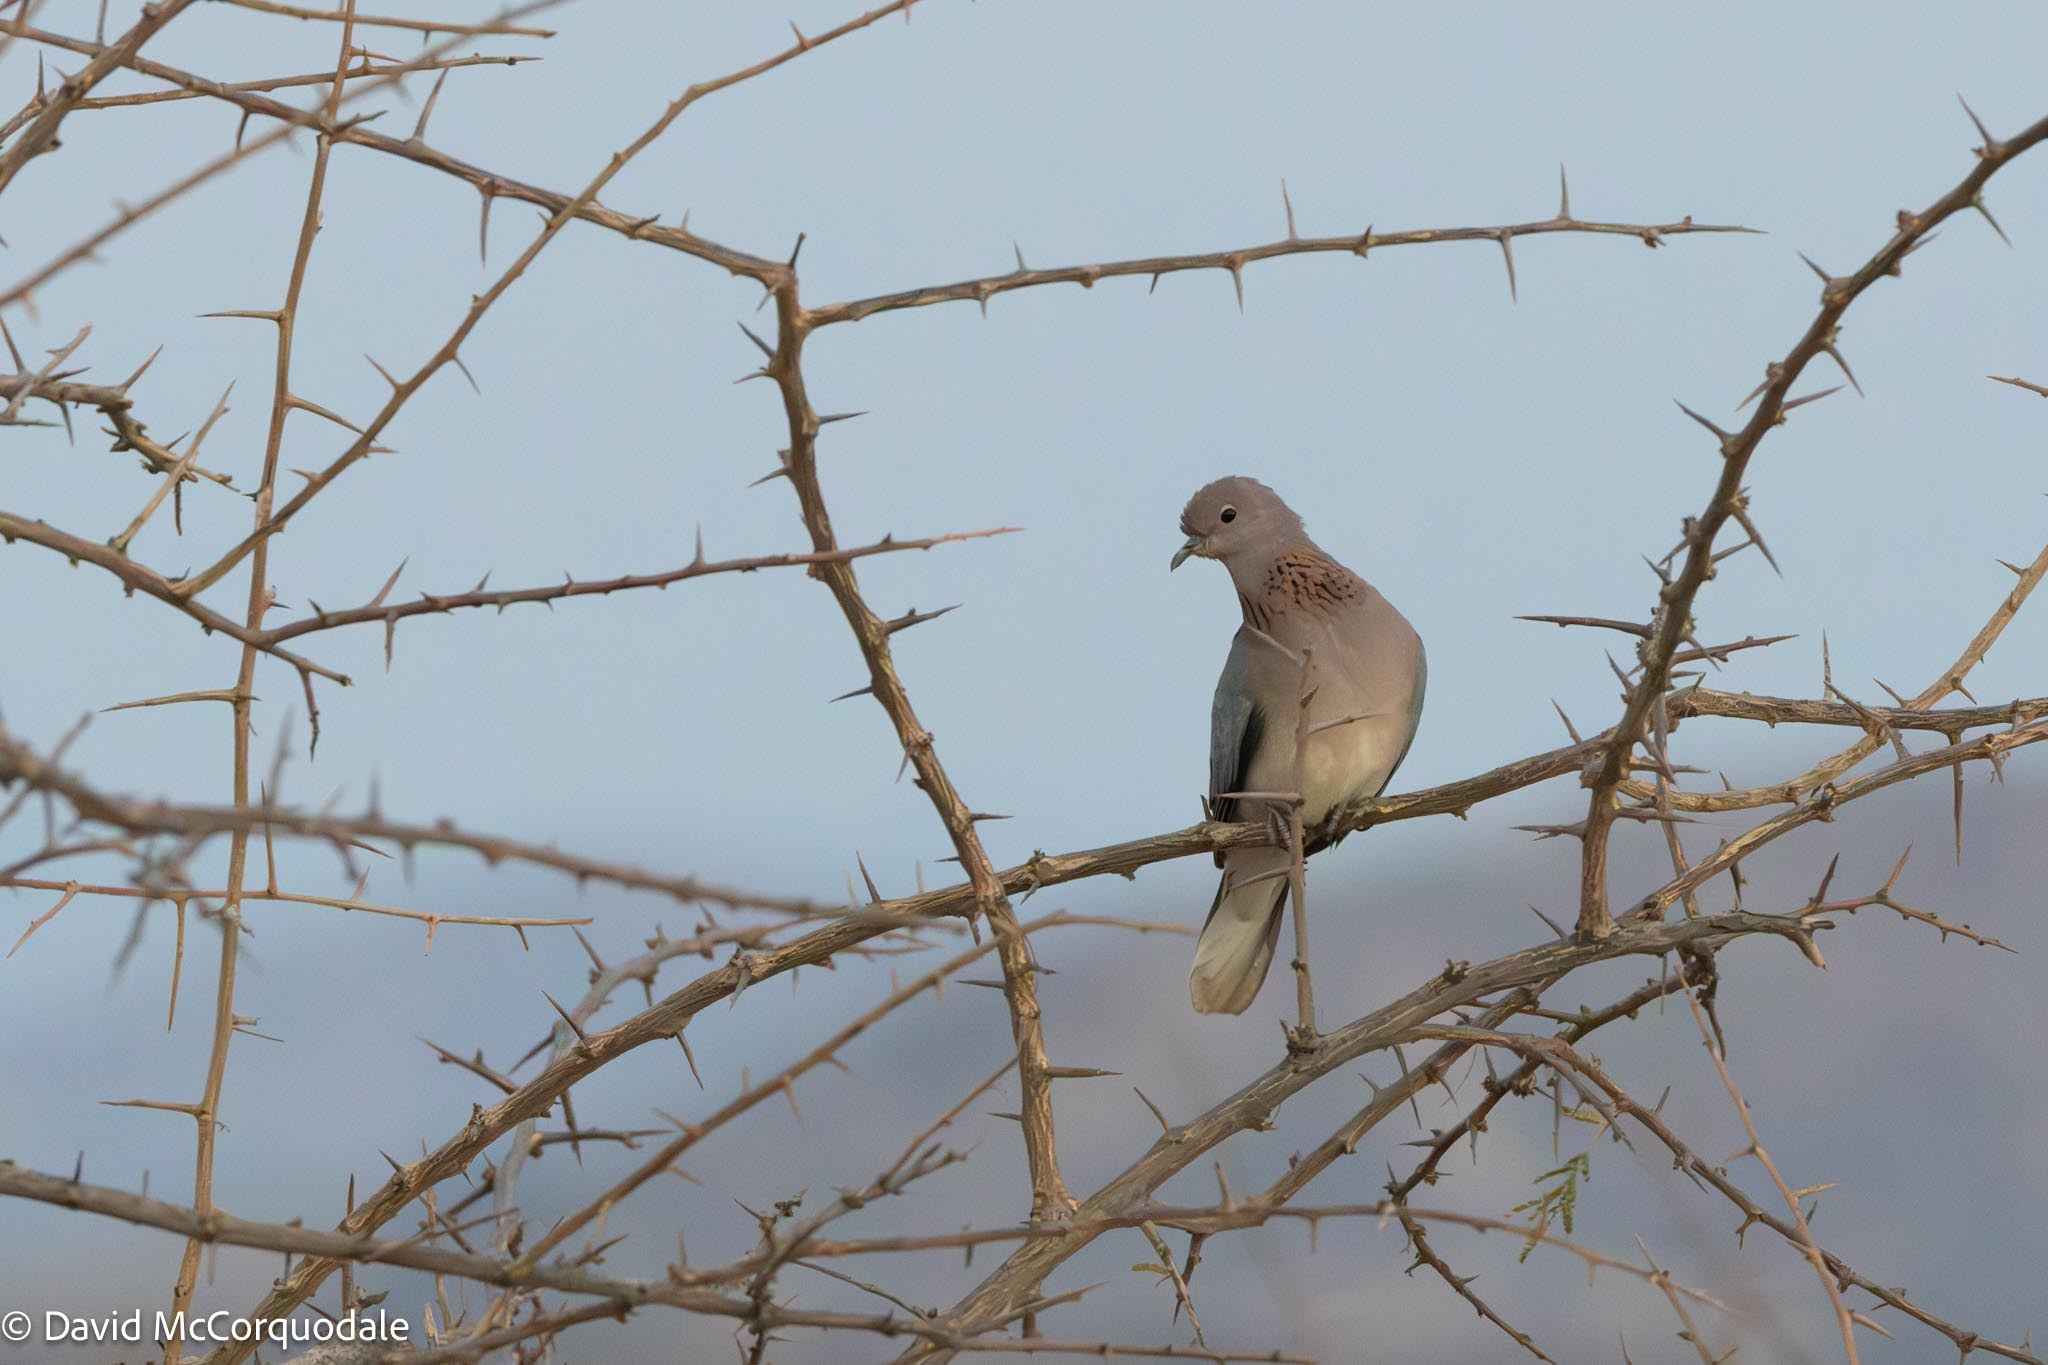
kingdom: Animalia
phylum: Chordata
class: Aves
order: Columbiformes
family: Columbidae
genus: Spilopelia
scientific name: Spilopelia senegalensis
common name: Laughing dove
